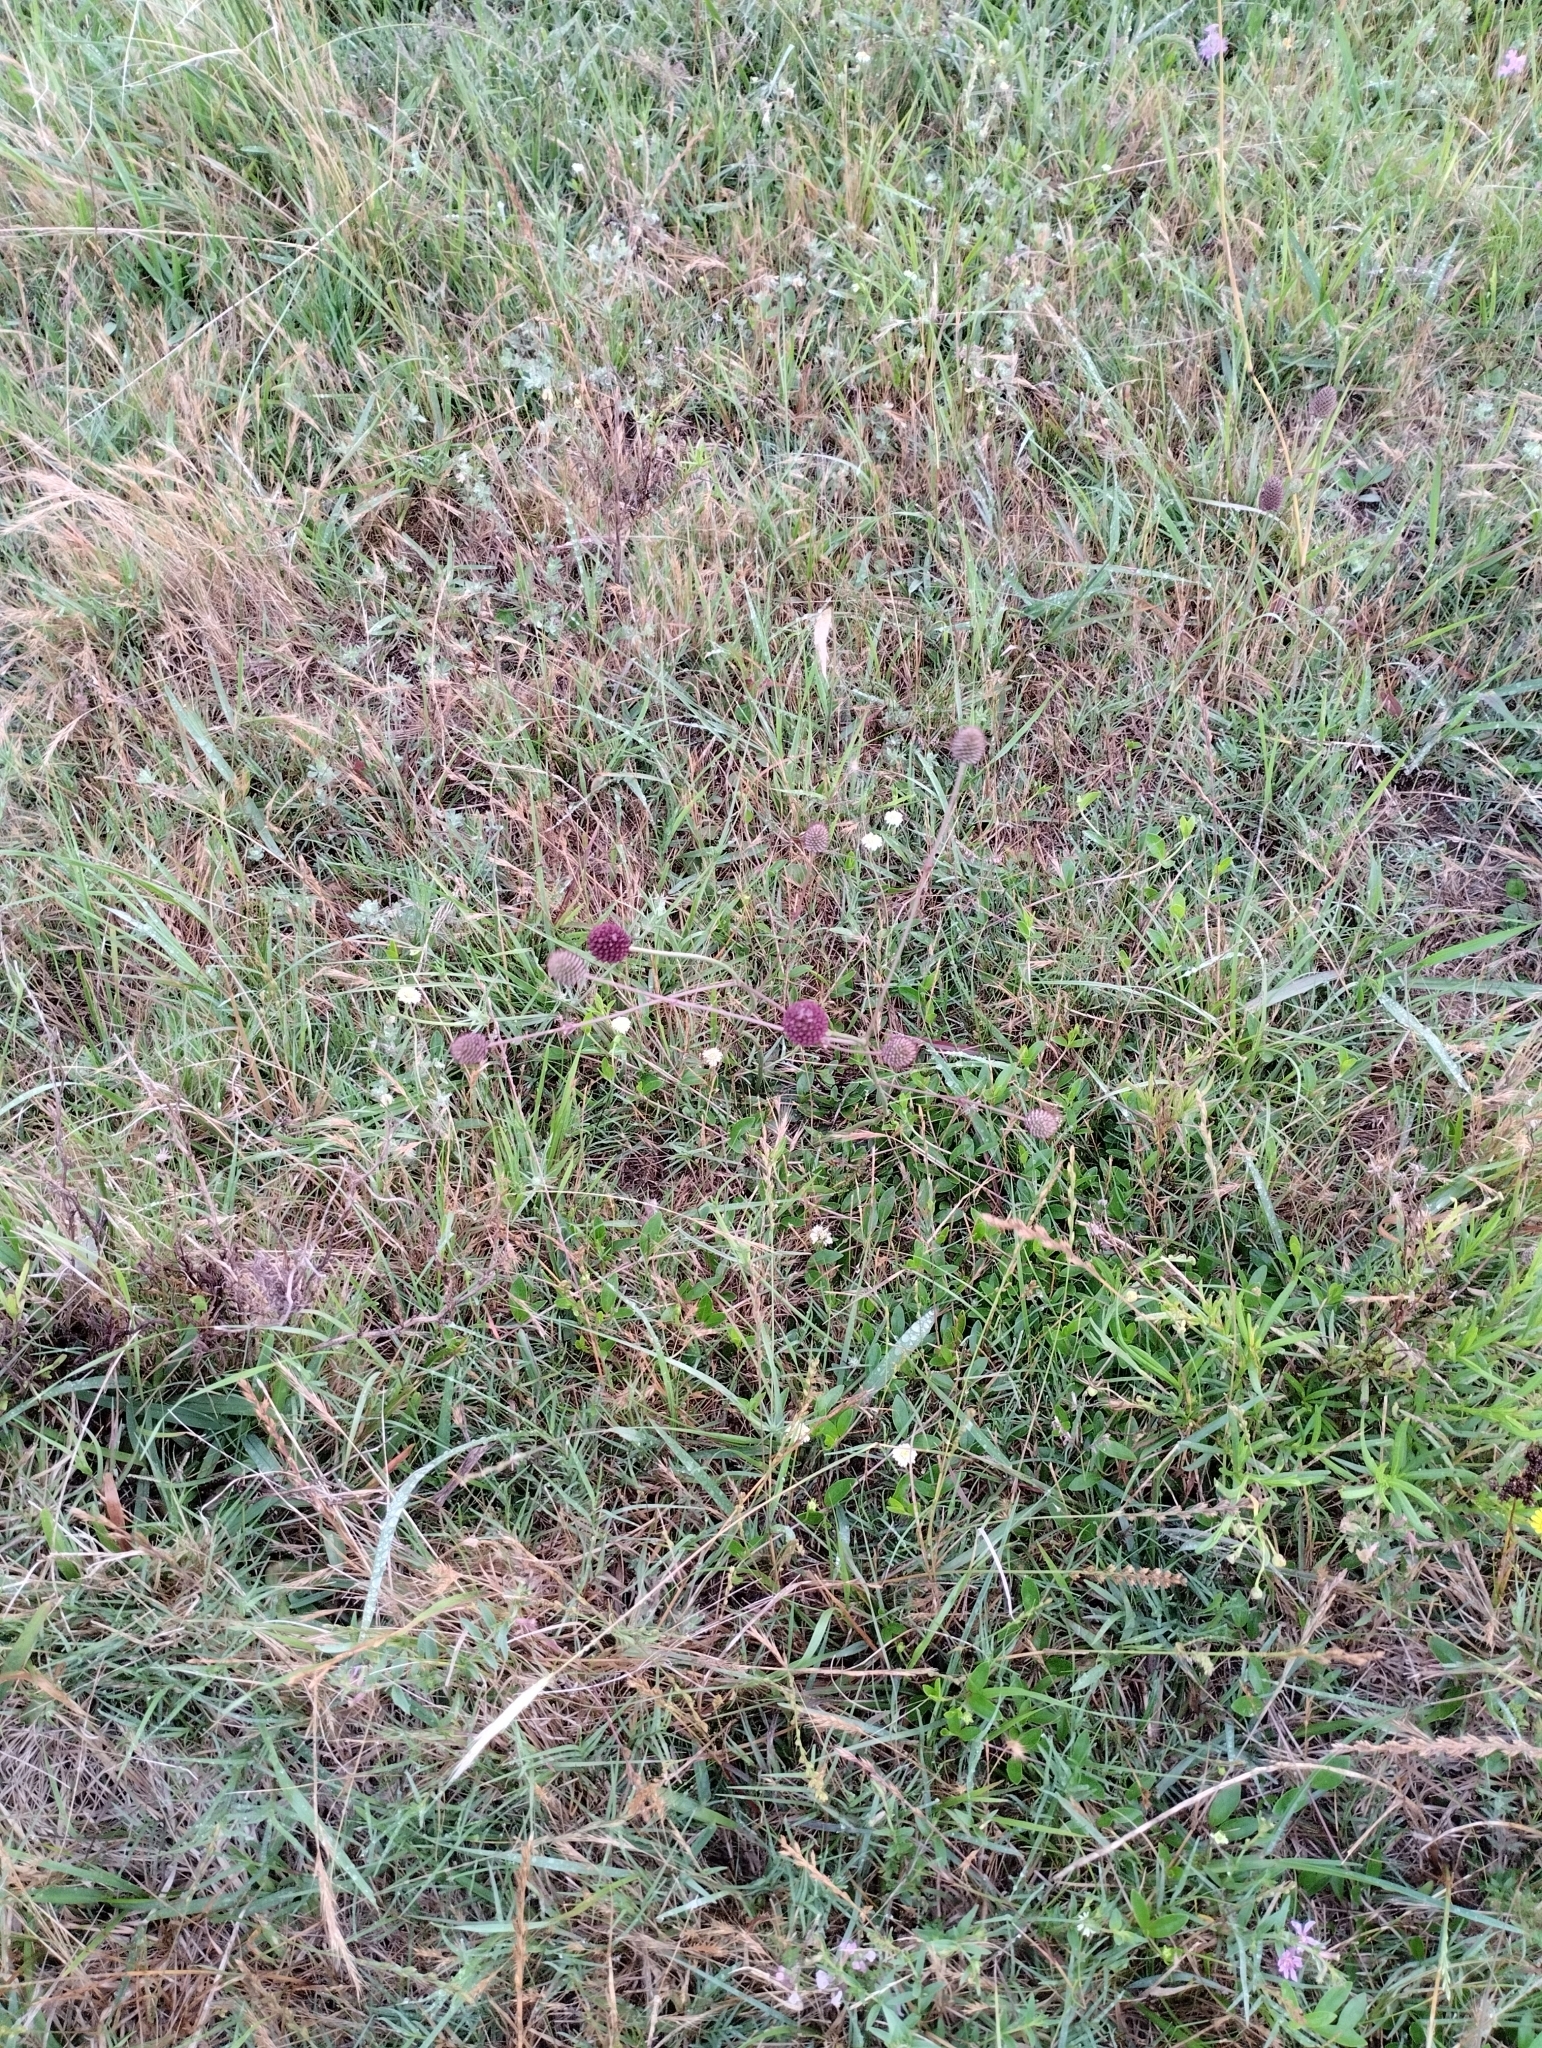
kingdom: Plantae
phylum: Tracheophyta
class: Magnoliopsida
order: Apiales
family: Apiaceae
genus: Eryngium
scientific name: Eryngium sanguisorba
